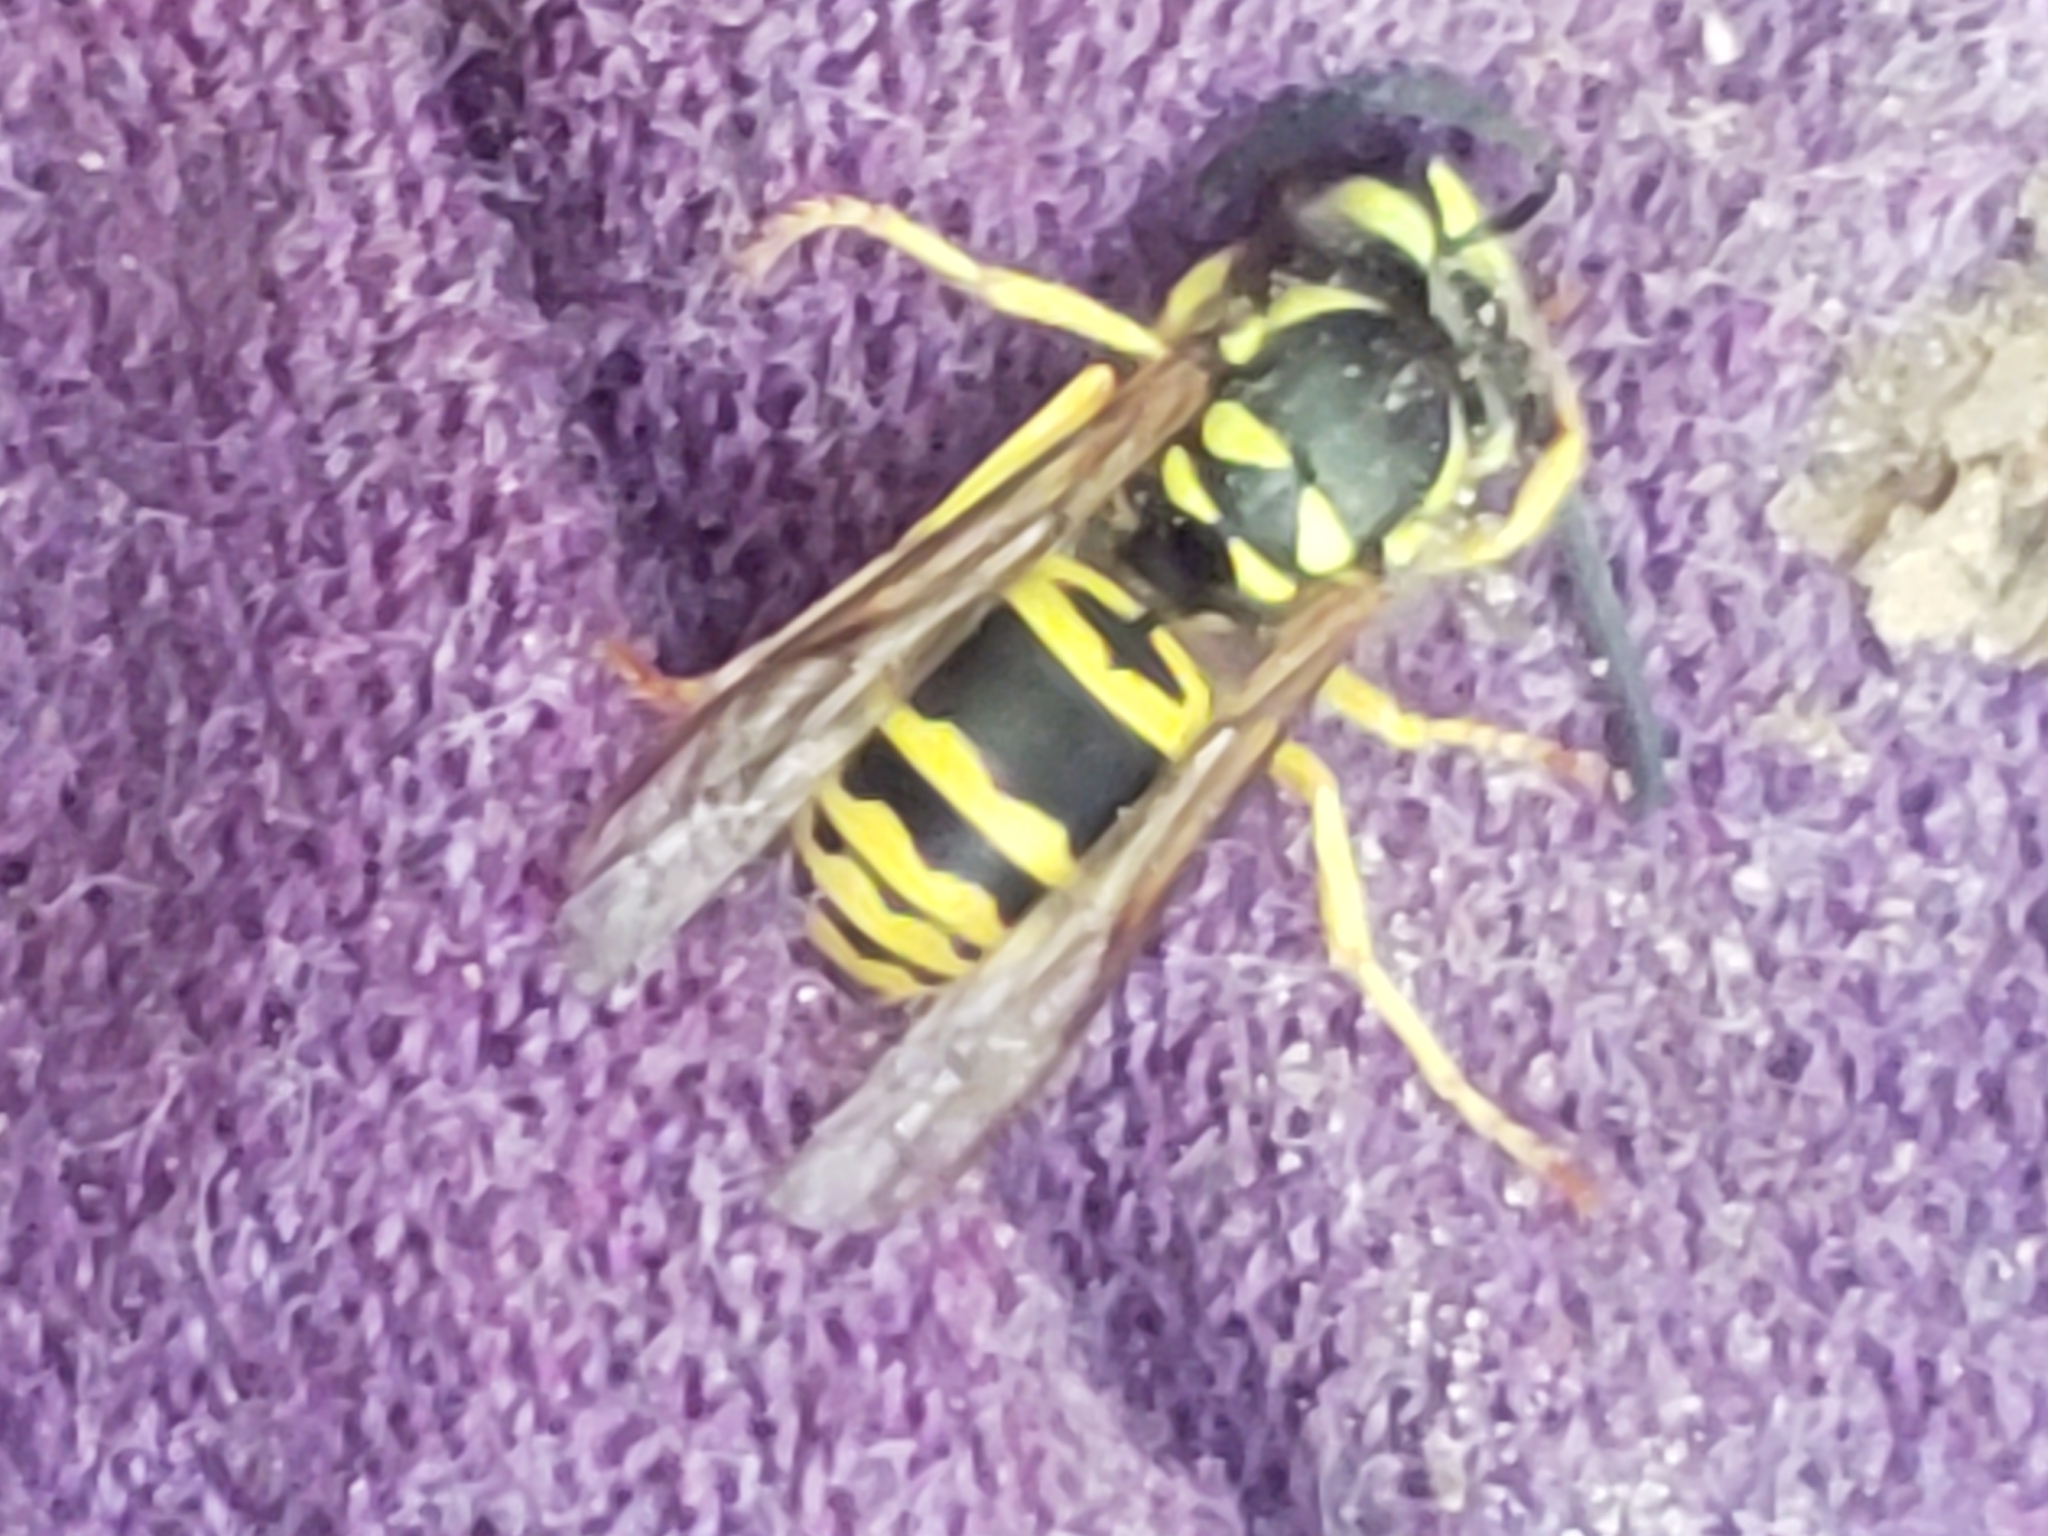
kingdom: Animalia
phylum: Arthropoda
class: Insecta
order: Hymenoptera
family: Vespidae
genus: Vespula
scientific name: Vespula maculifrons
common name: Eastern yellowjacket
